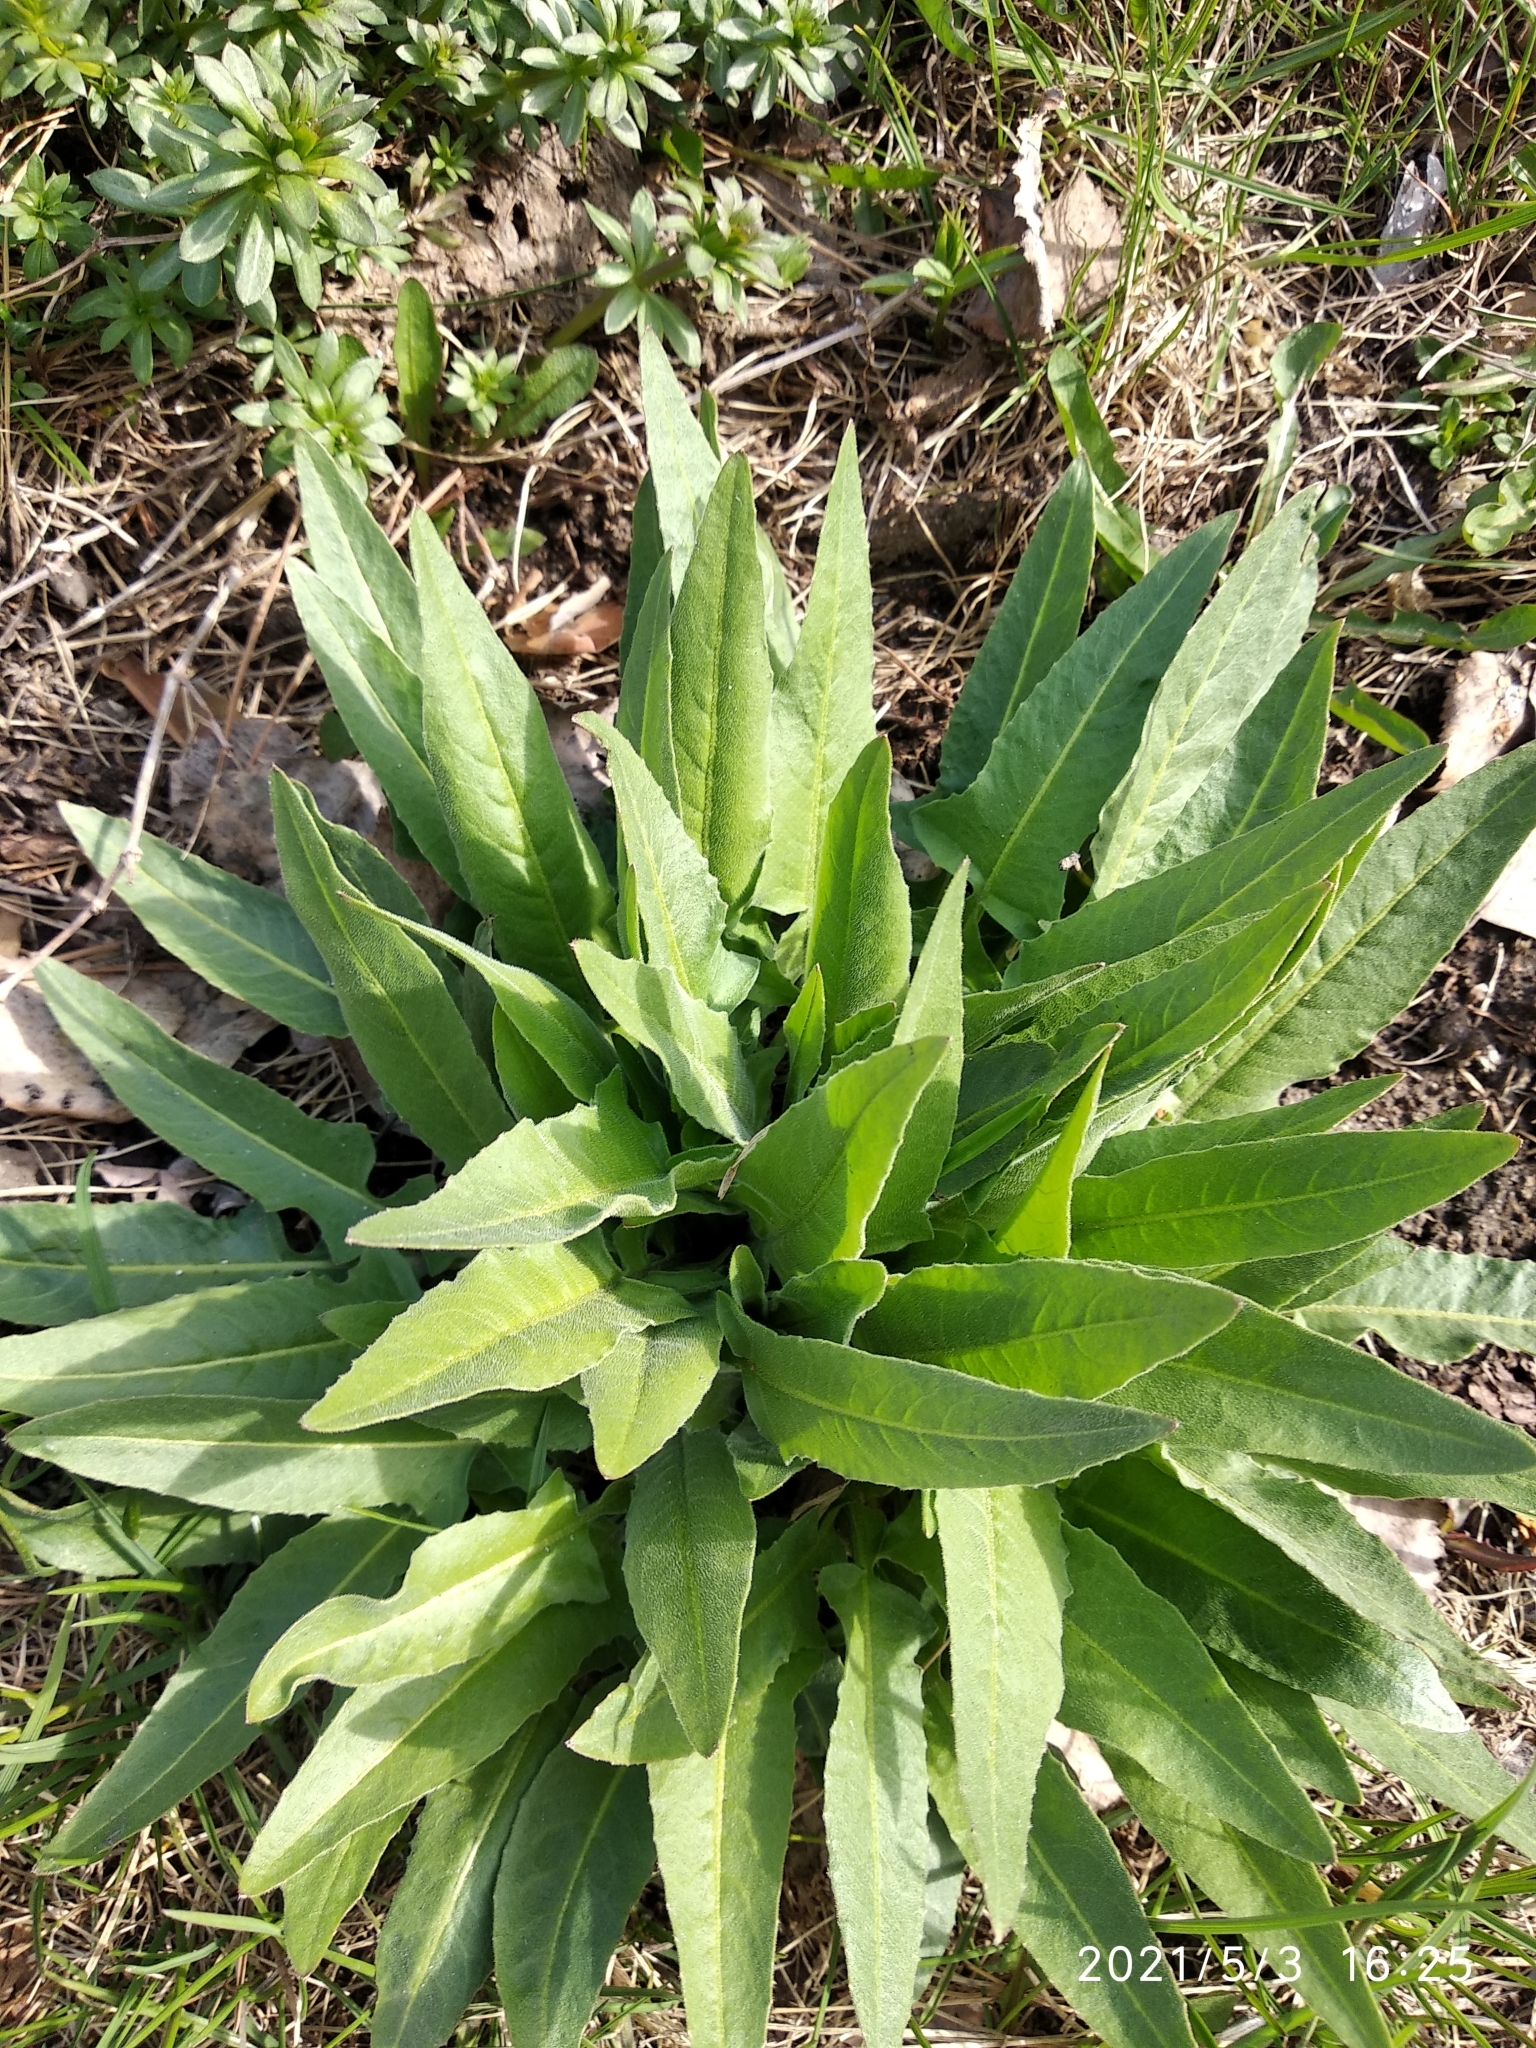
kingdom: Plantae
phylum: Tracheophyta
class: Magnoliopsida
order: Brassicales
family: Brassicaceae
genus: Bunias
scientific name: Bunias orientalis
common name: Warty-cabbage
